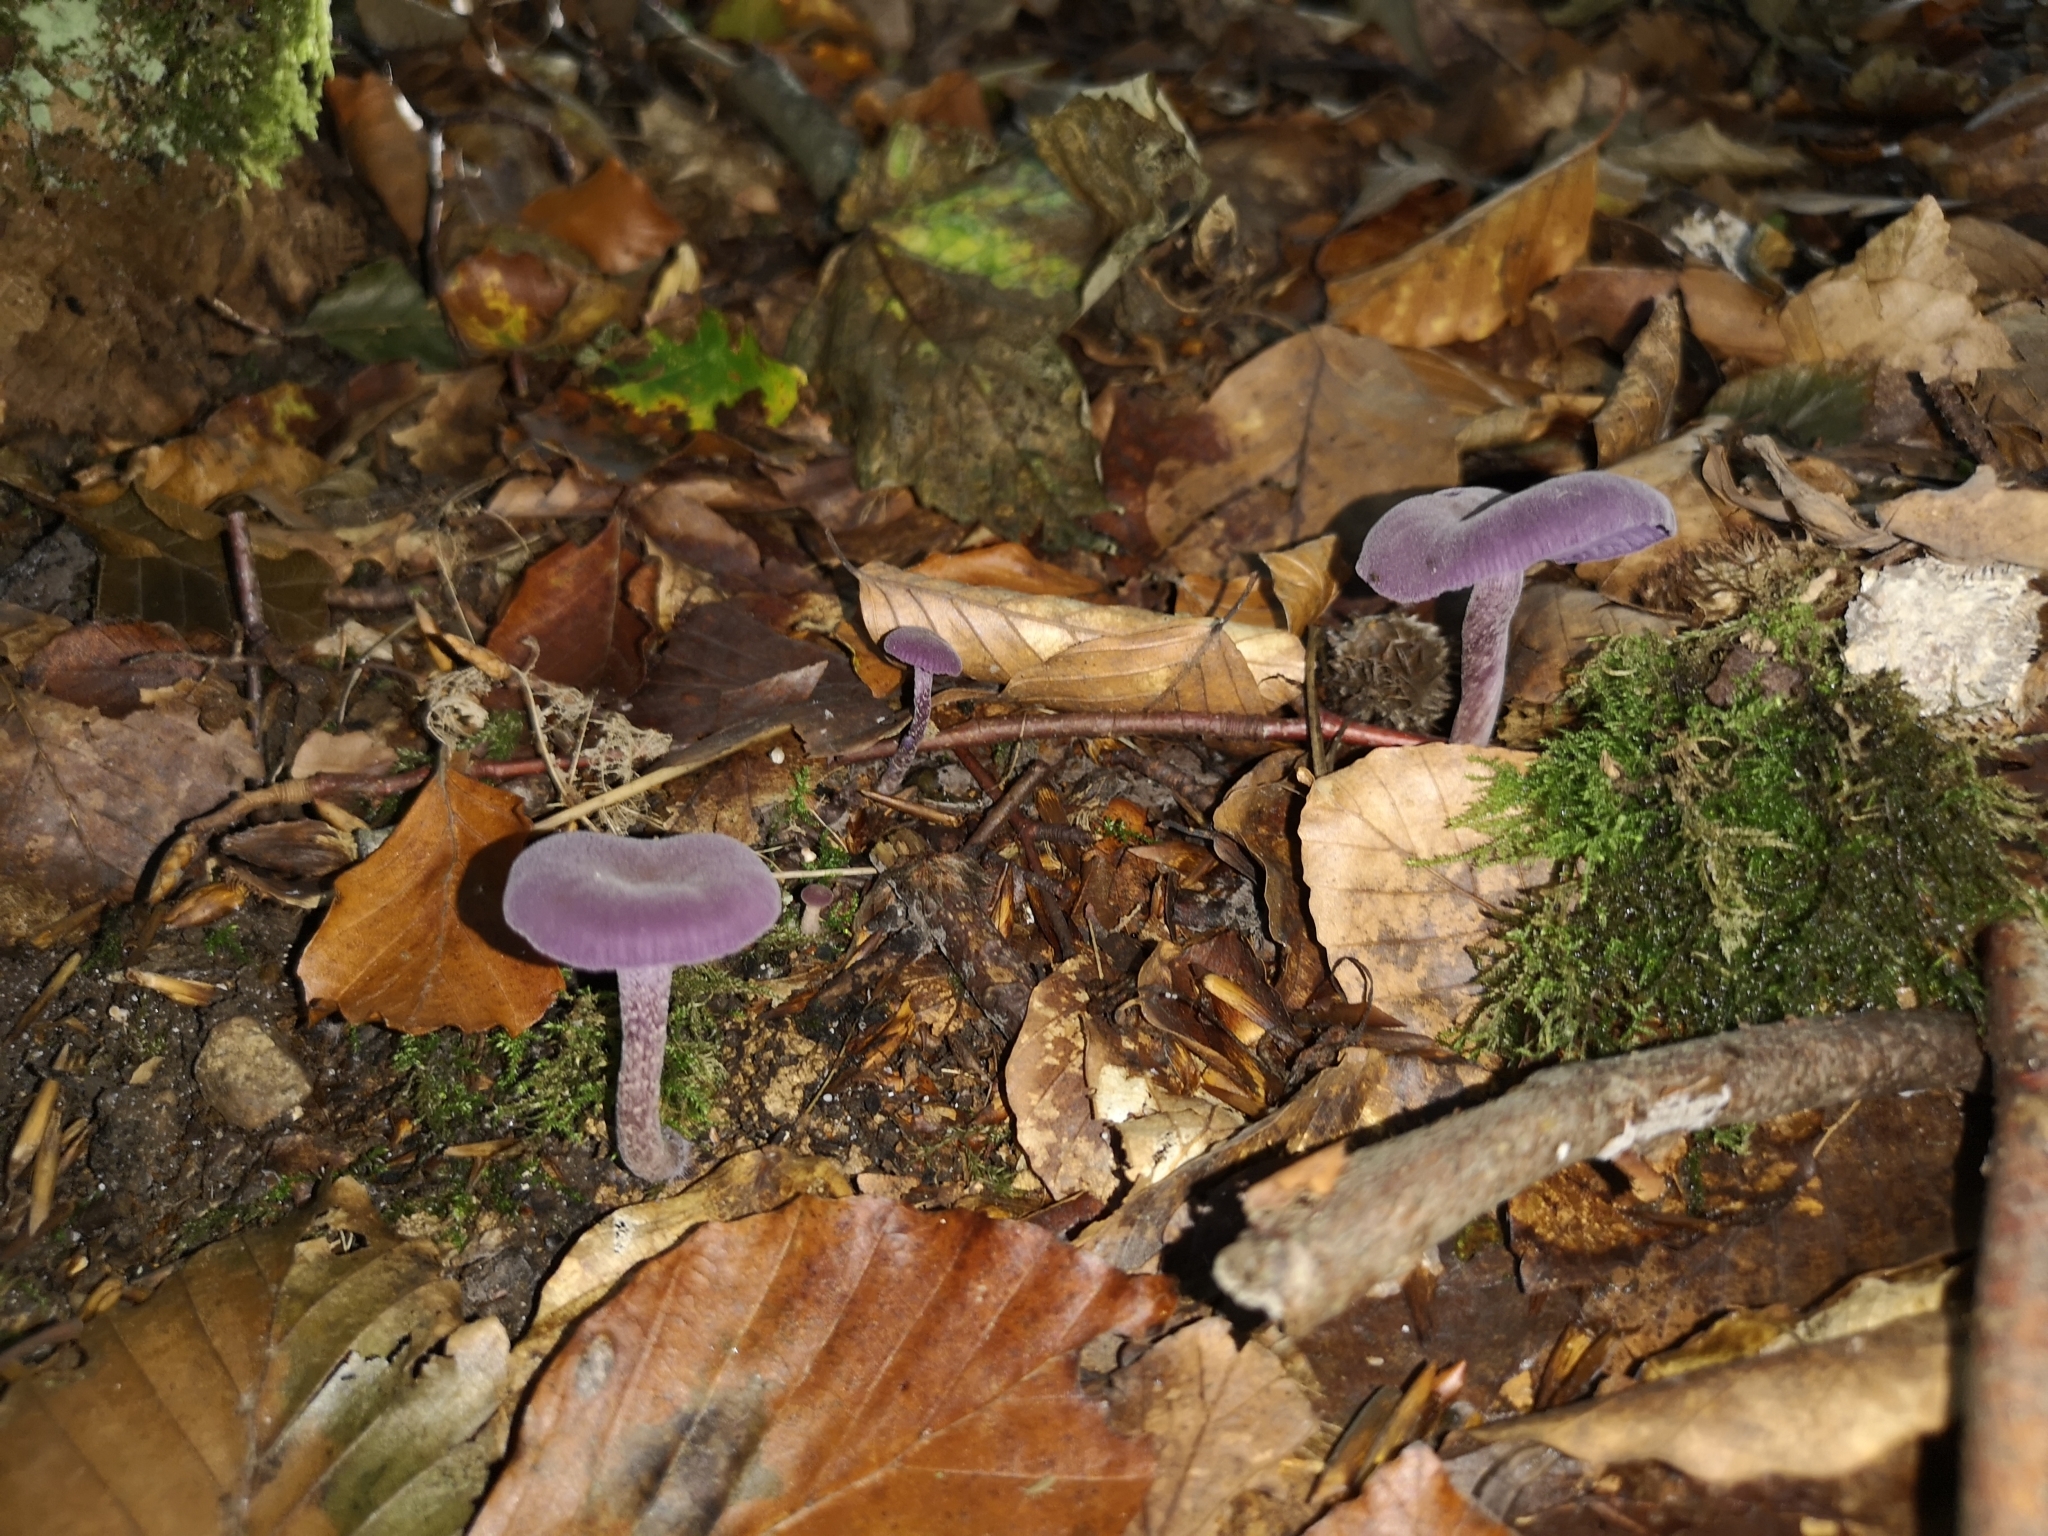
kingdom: Fungi
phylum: Basidiomycota
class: Agaricomycetes
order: Agaricales
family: Hydnangiaceae
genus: Laccaria
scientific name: Laccaria amethystina
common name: Amethyst deceiver
